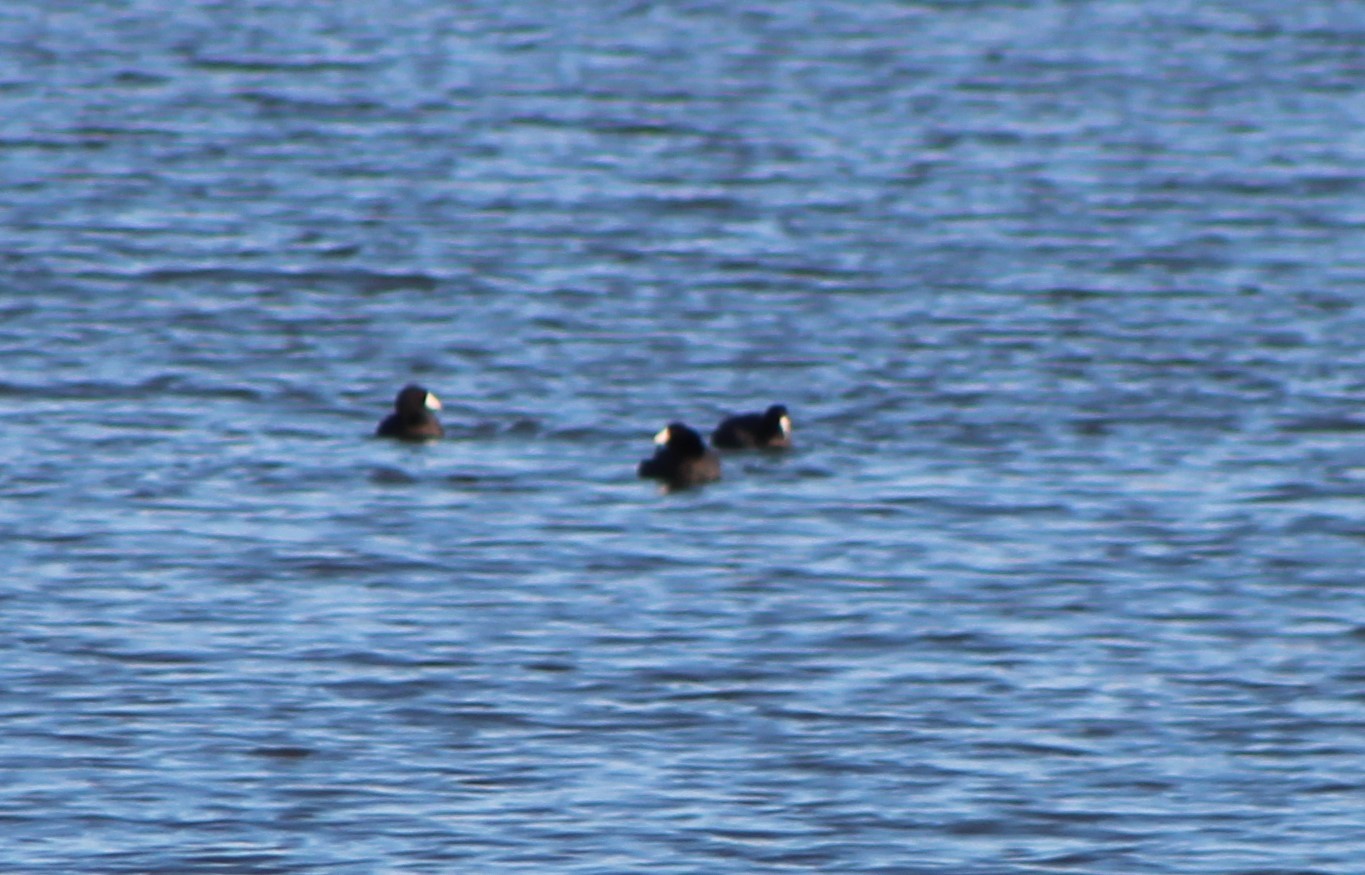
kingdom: Animalia
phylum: Chordata
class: Aves
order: Gruiformes
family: Rallidae
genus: Fulica
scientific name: Fulica americana
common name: American coot
